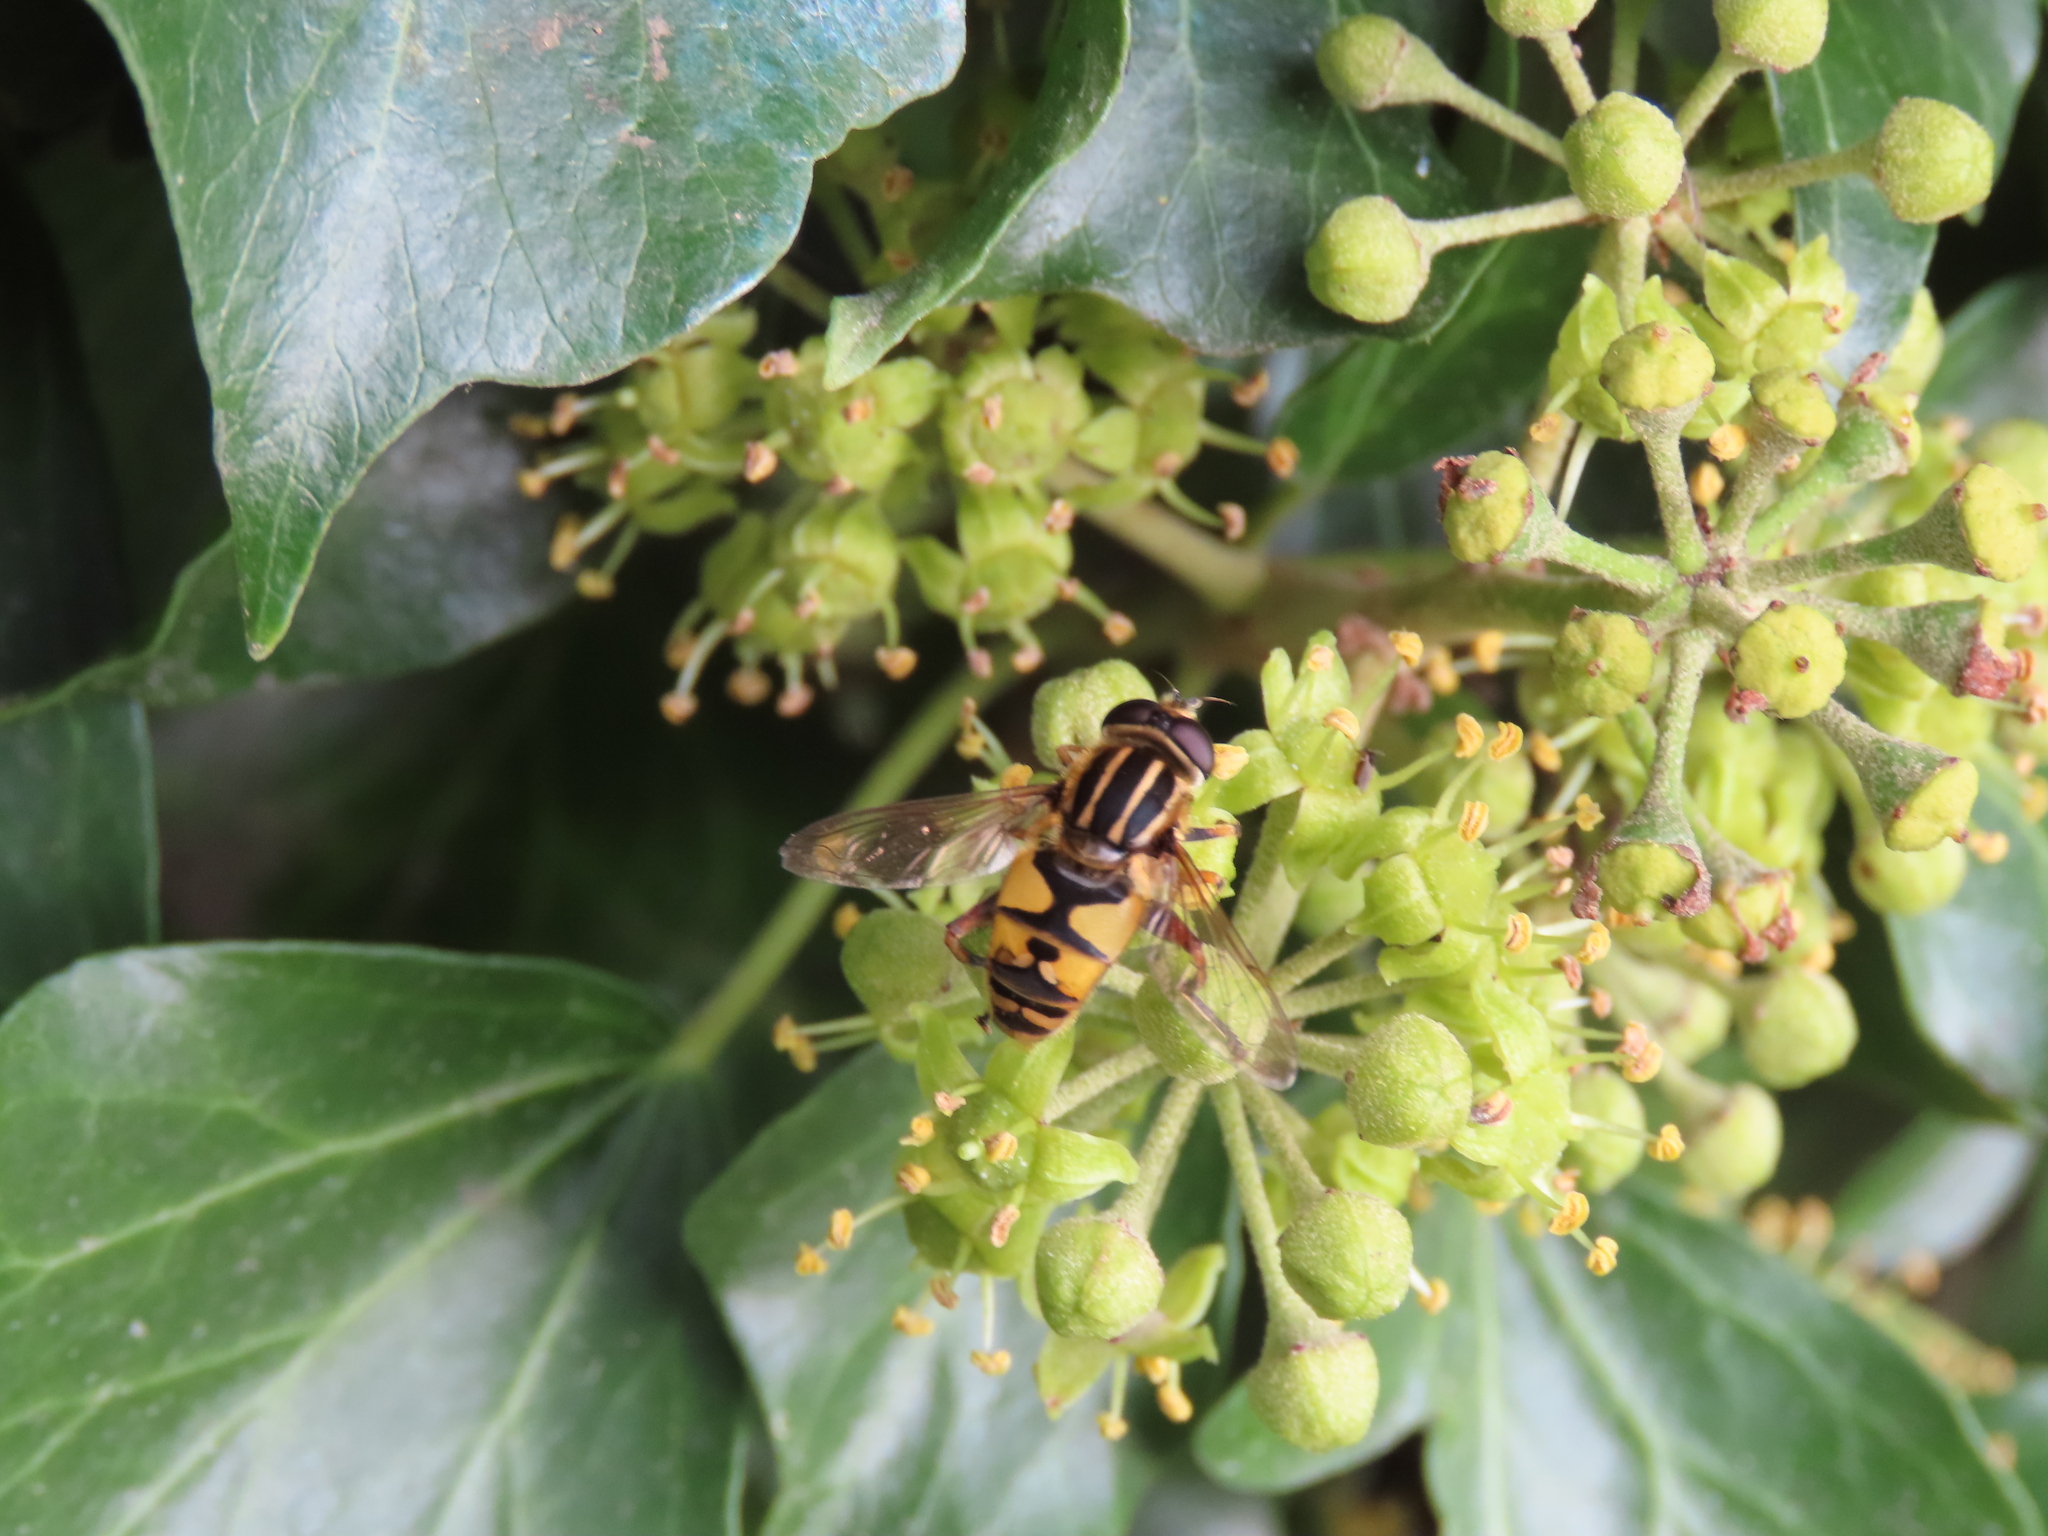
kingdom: Animalia
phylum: Arthropoda
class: Insecta
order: Diptera
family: Syrphidae
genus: Helophilus
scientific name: Helophilus pendulus
